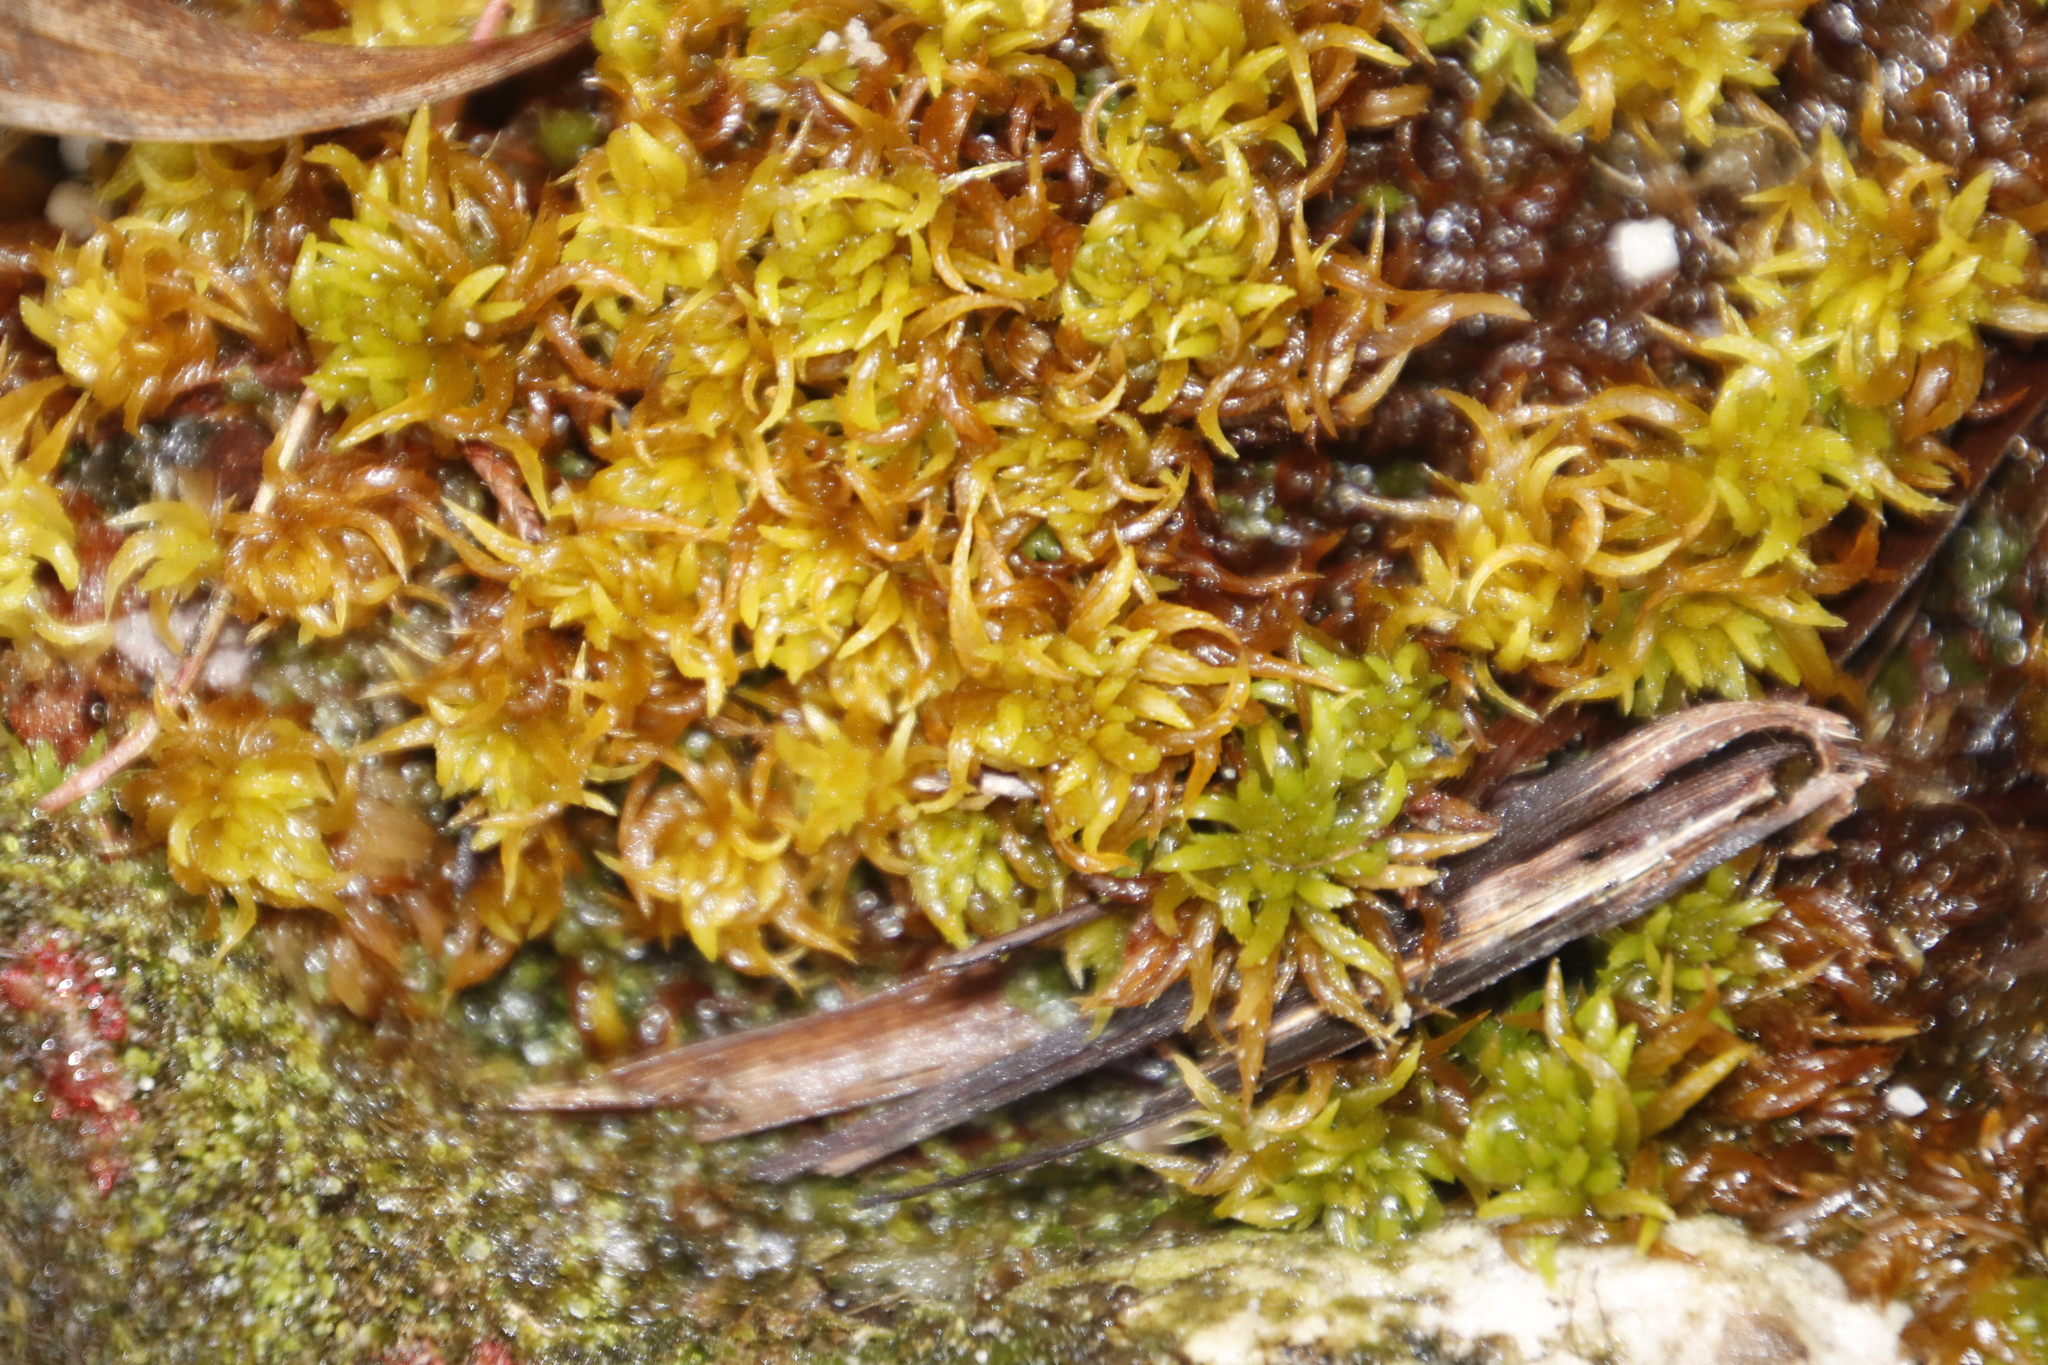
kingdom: Plantae
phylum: Bryophyta
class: Sphagnopsida
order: Sphagnales
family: Sphagnaceae
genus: Sphagnum
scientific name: Sphagnum truncatum
